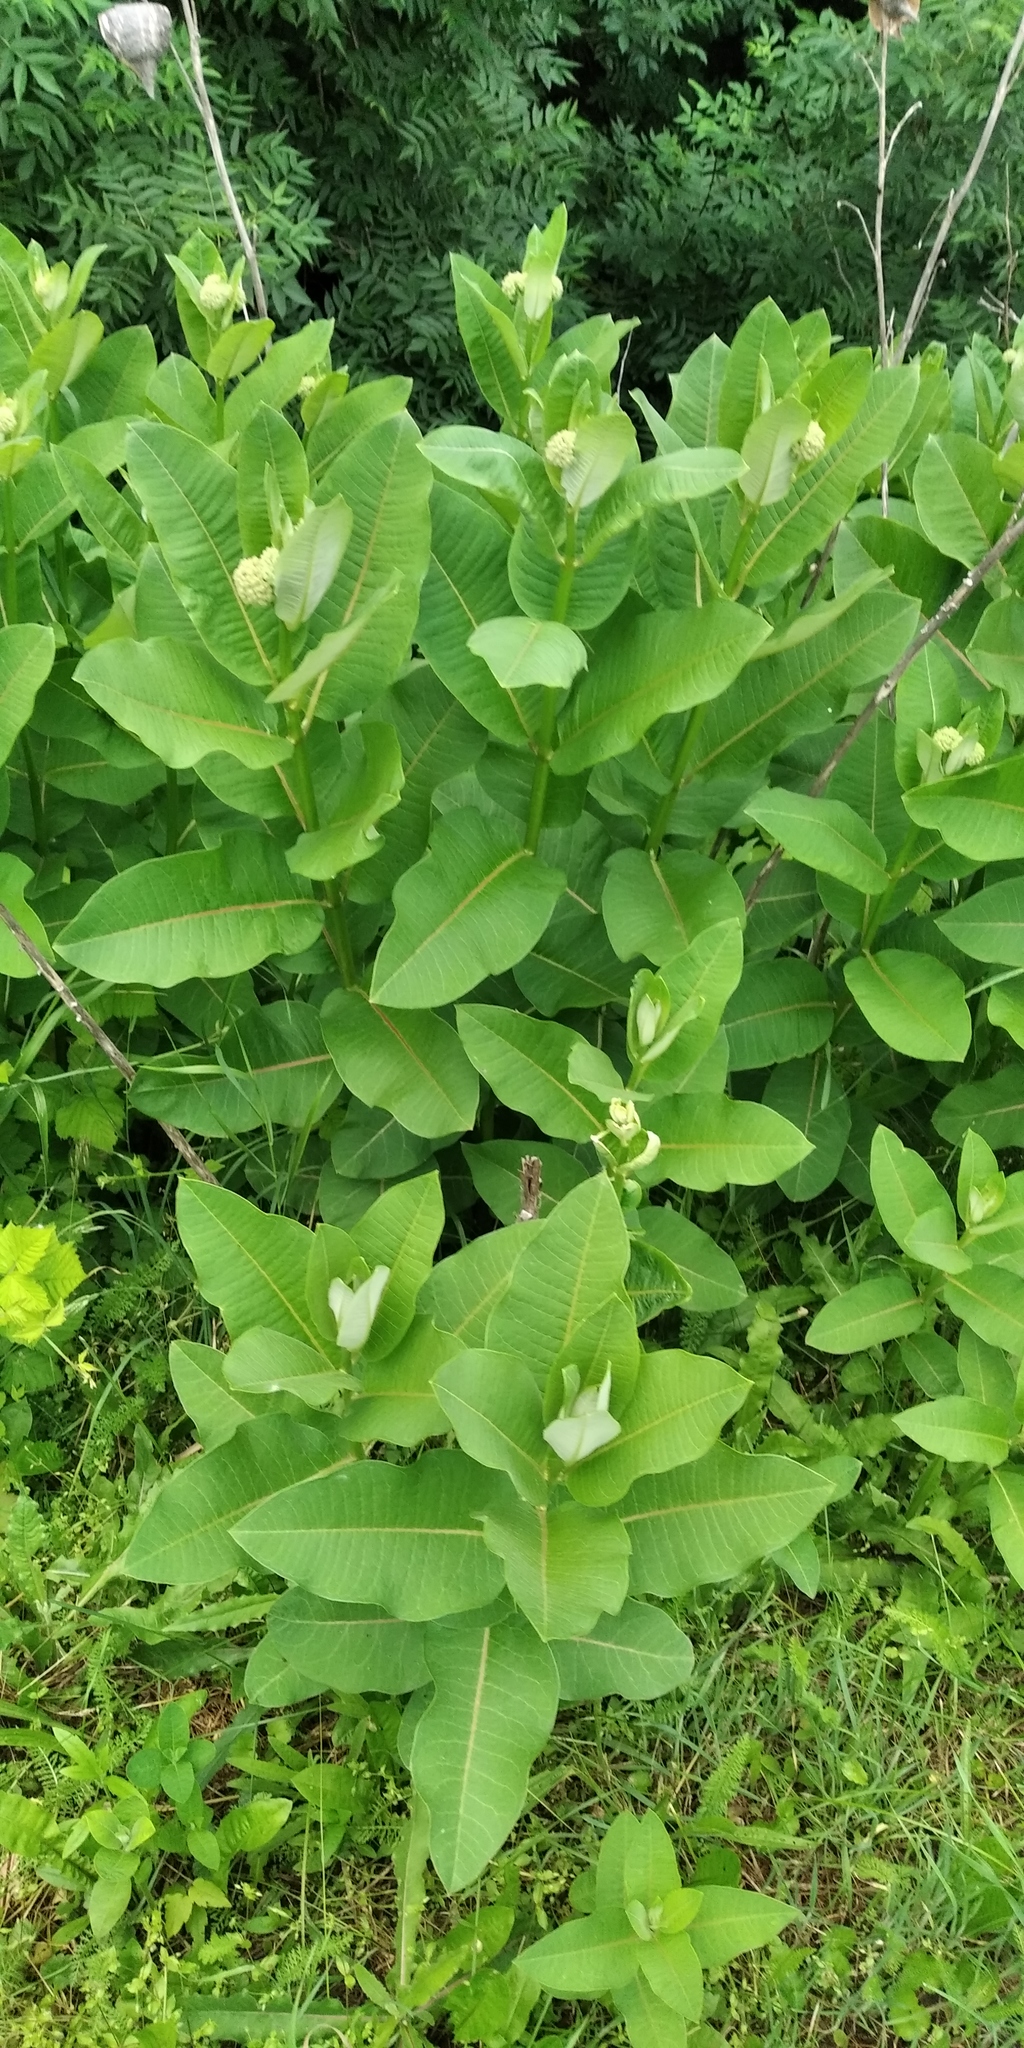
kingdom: Plantae
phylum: Tracheophyta
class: Magnoliopsida
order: Gentianales
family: Apocynaceae
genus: Asclepias
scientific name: Asclepias syriaca
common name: Common milkweed
